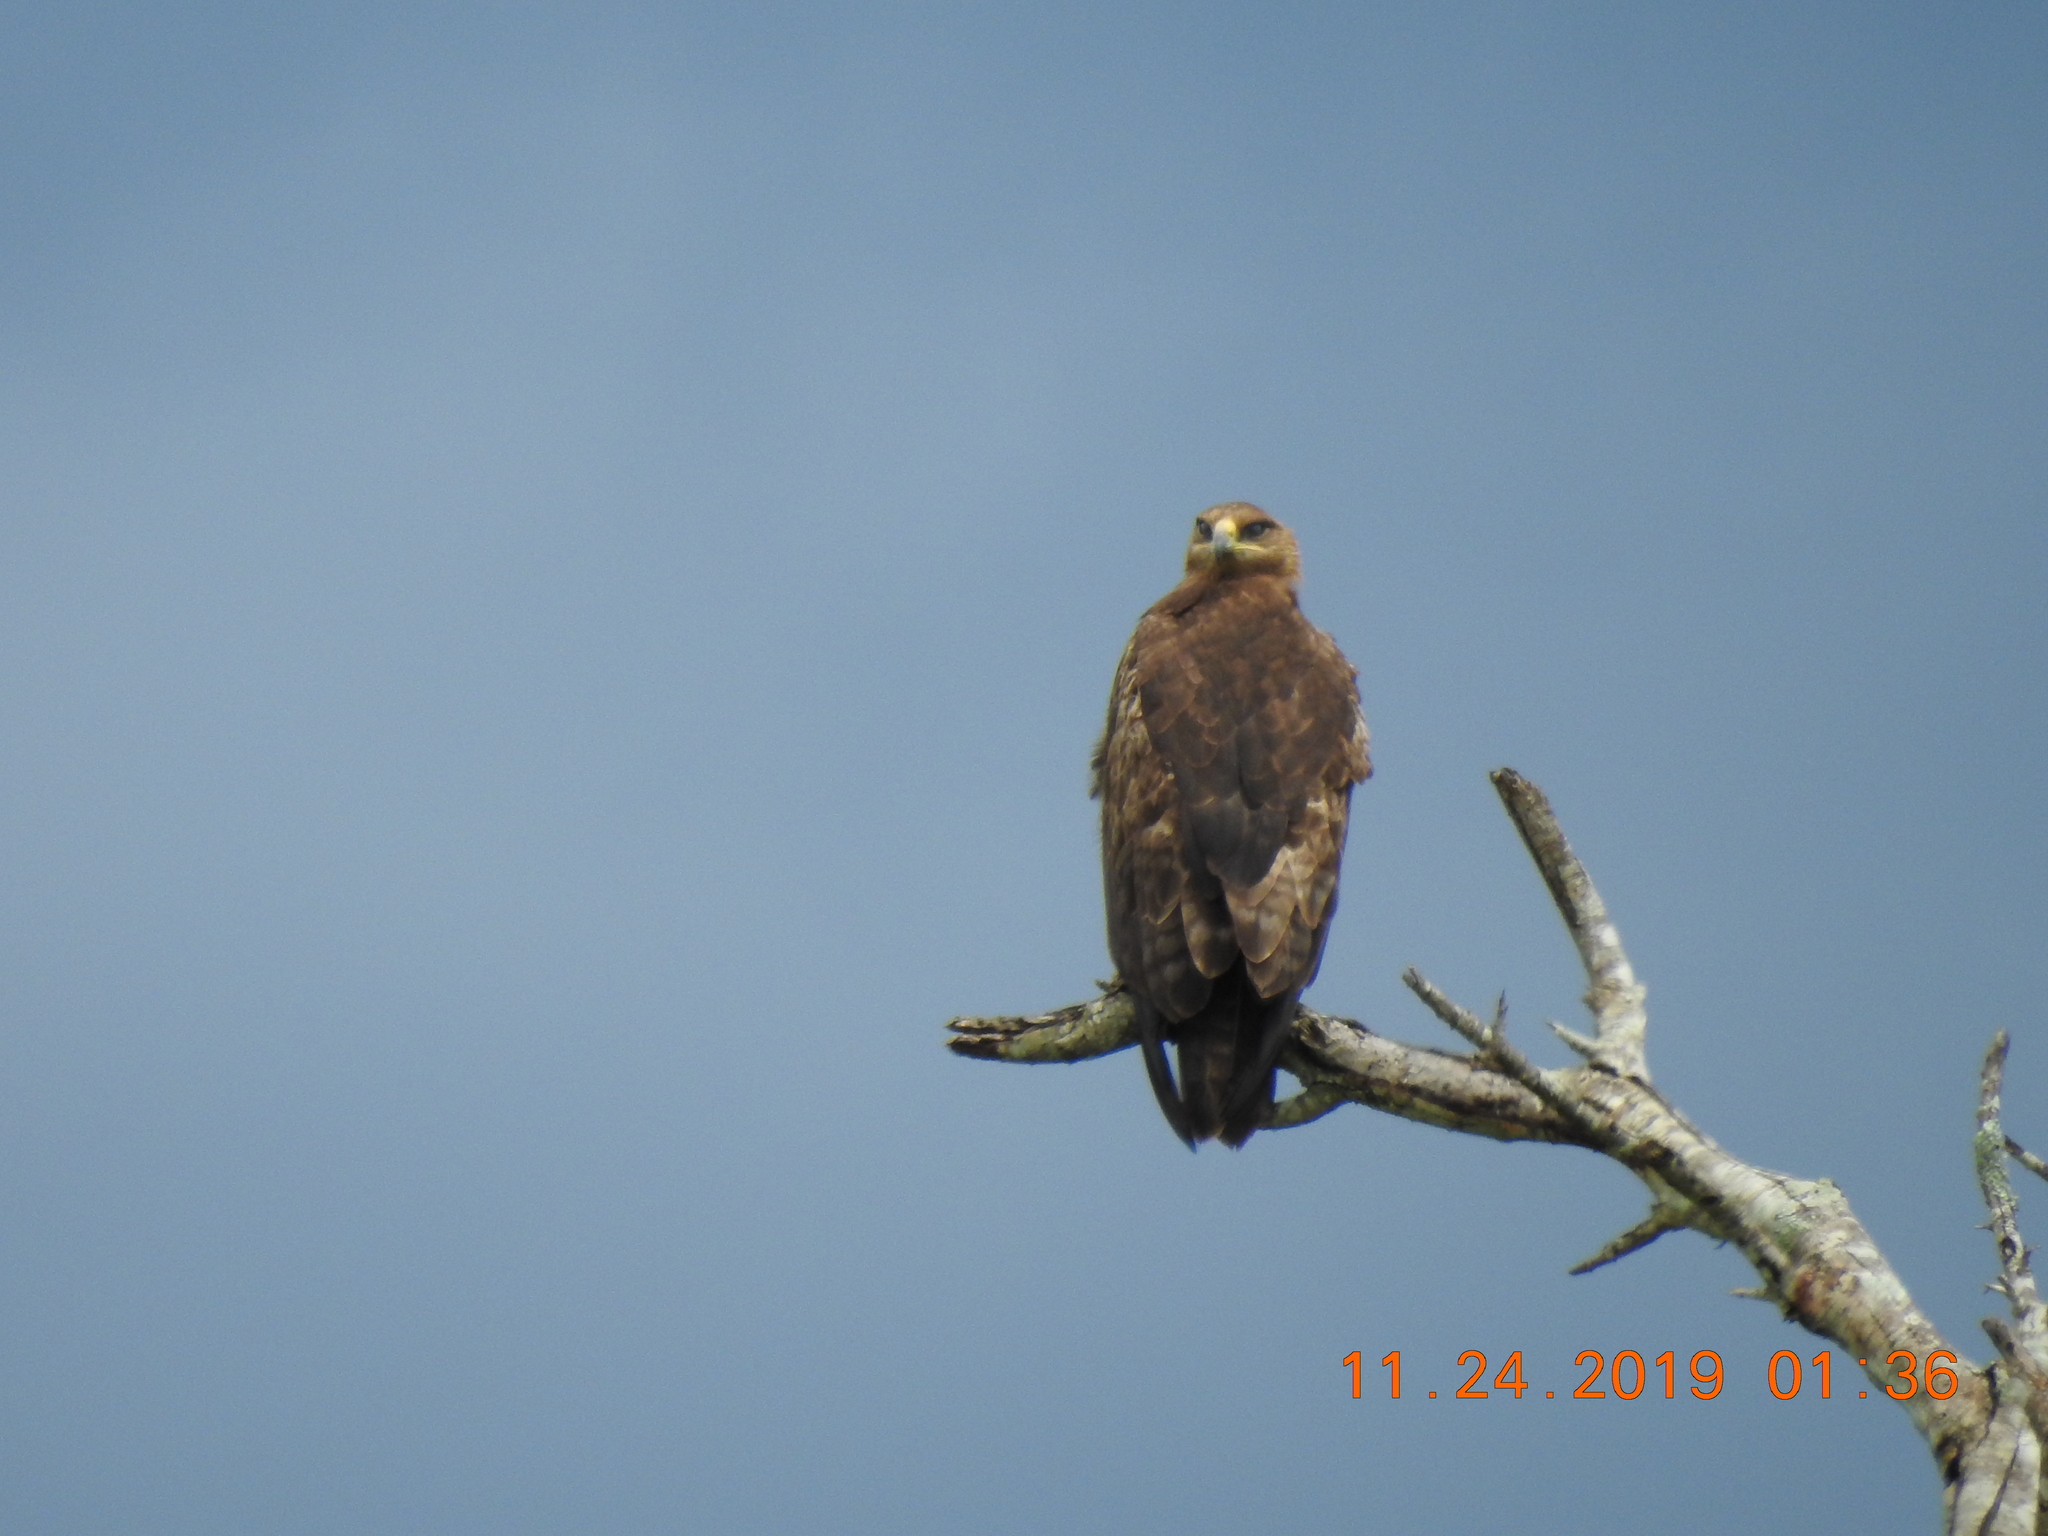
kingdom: Animalia
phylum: Chordata
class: Aves
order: Accipitriformes
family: Accipitridae
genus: Aquila
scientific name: Aquila rapax
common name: Tawny eagle
